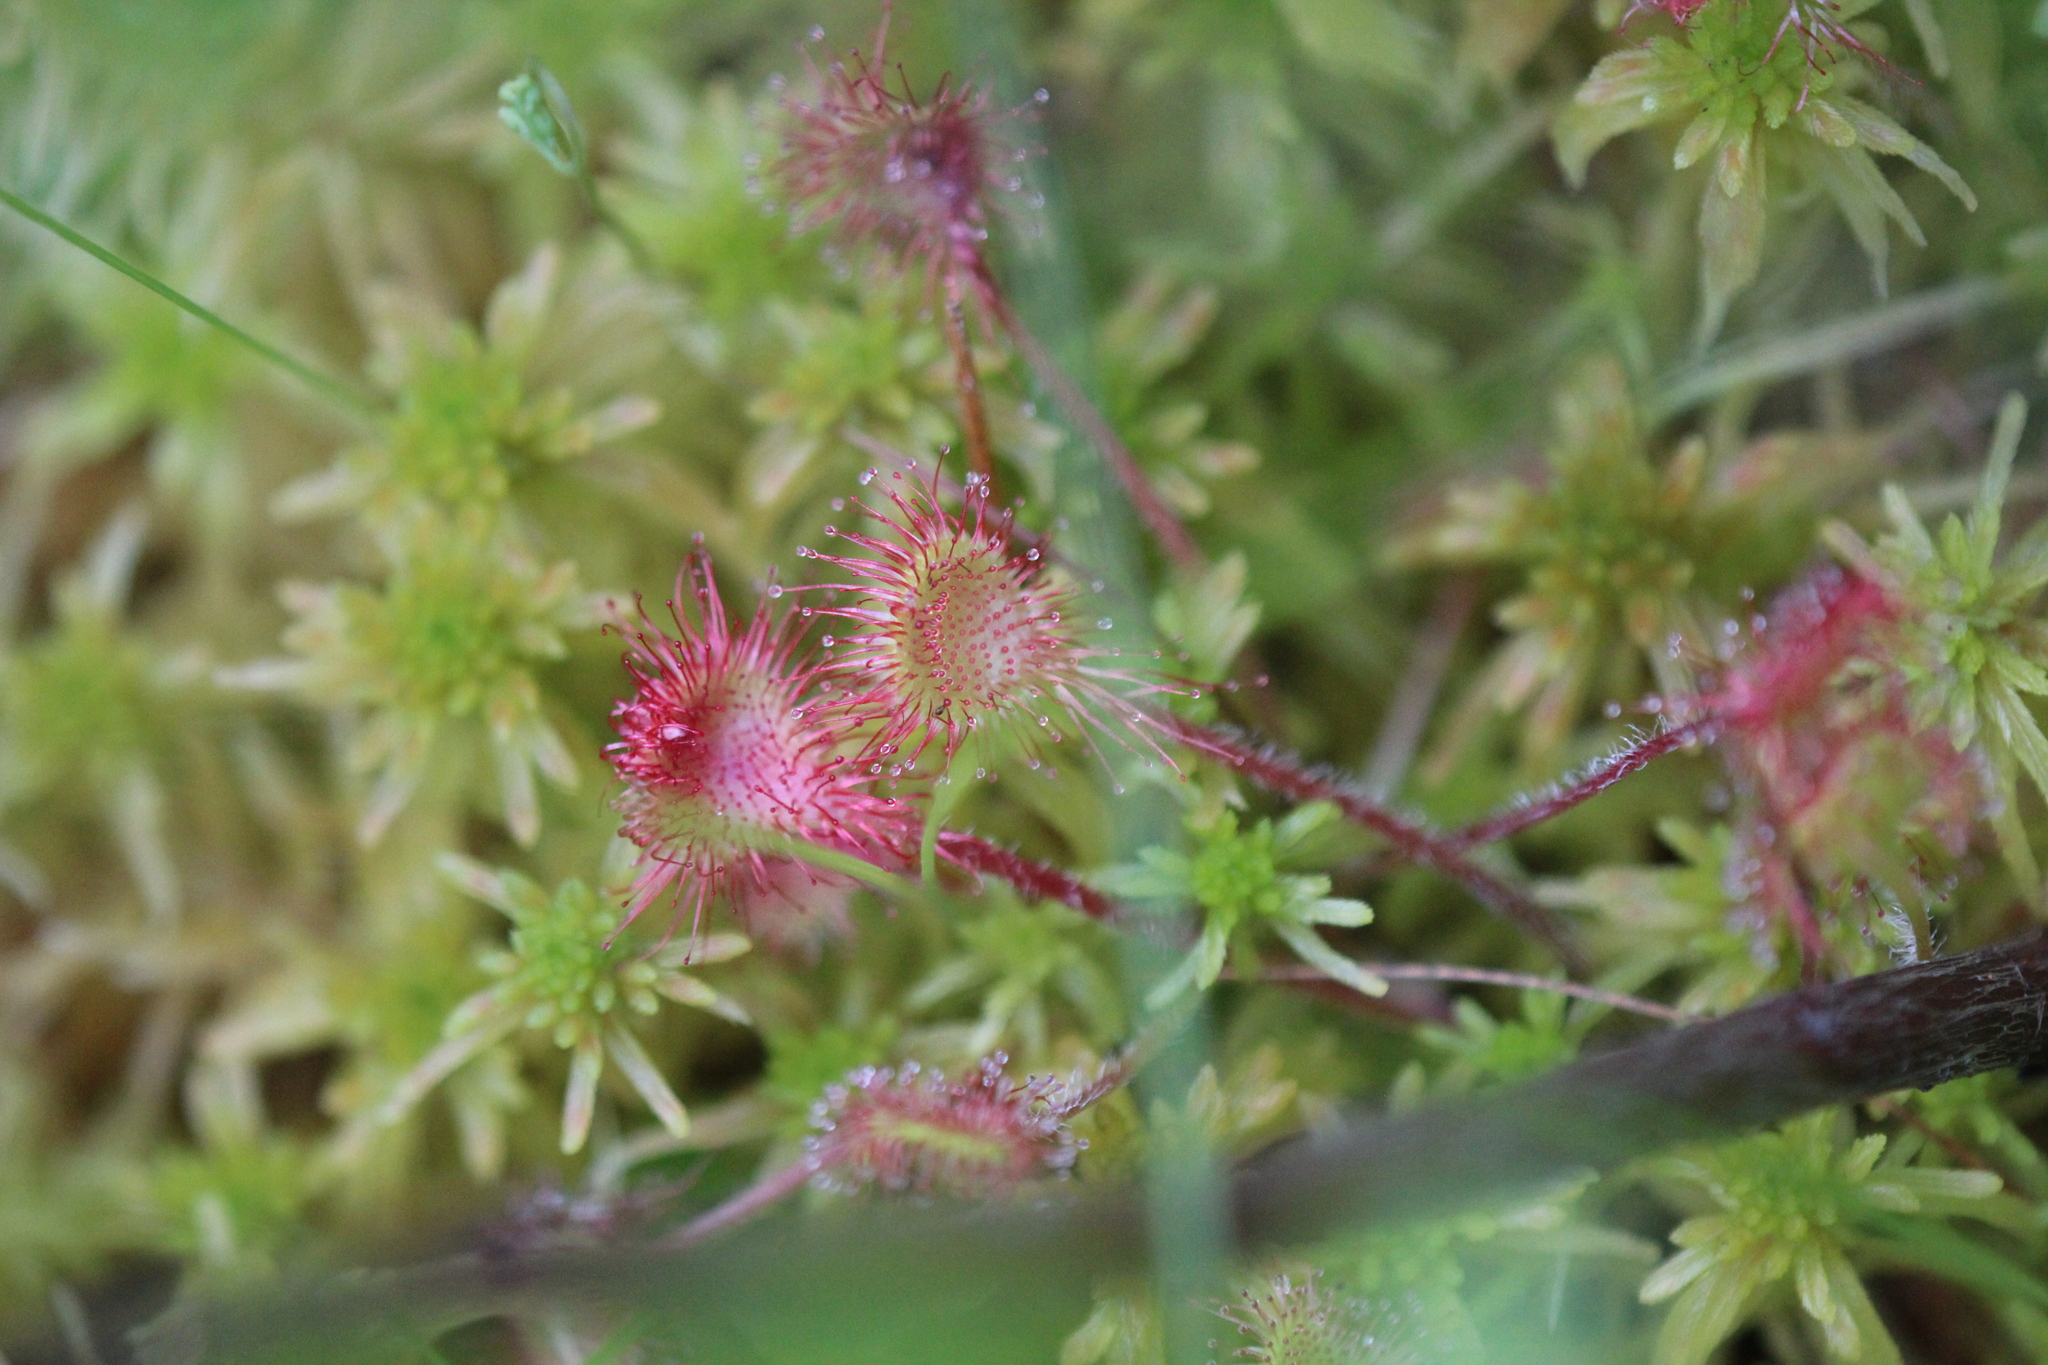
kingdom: Plantae
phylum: Tracheophyta
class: Magnoliopsida
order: Caryophyllales
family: Droseraceae
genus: Drosera
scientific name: Drosera rotundifolia
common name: Round-leaved sundew
